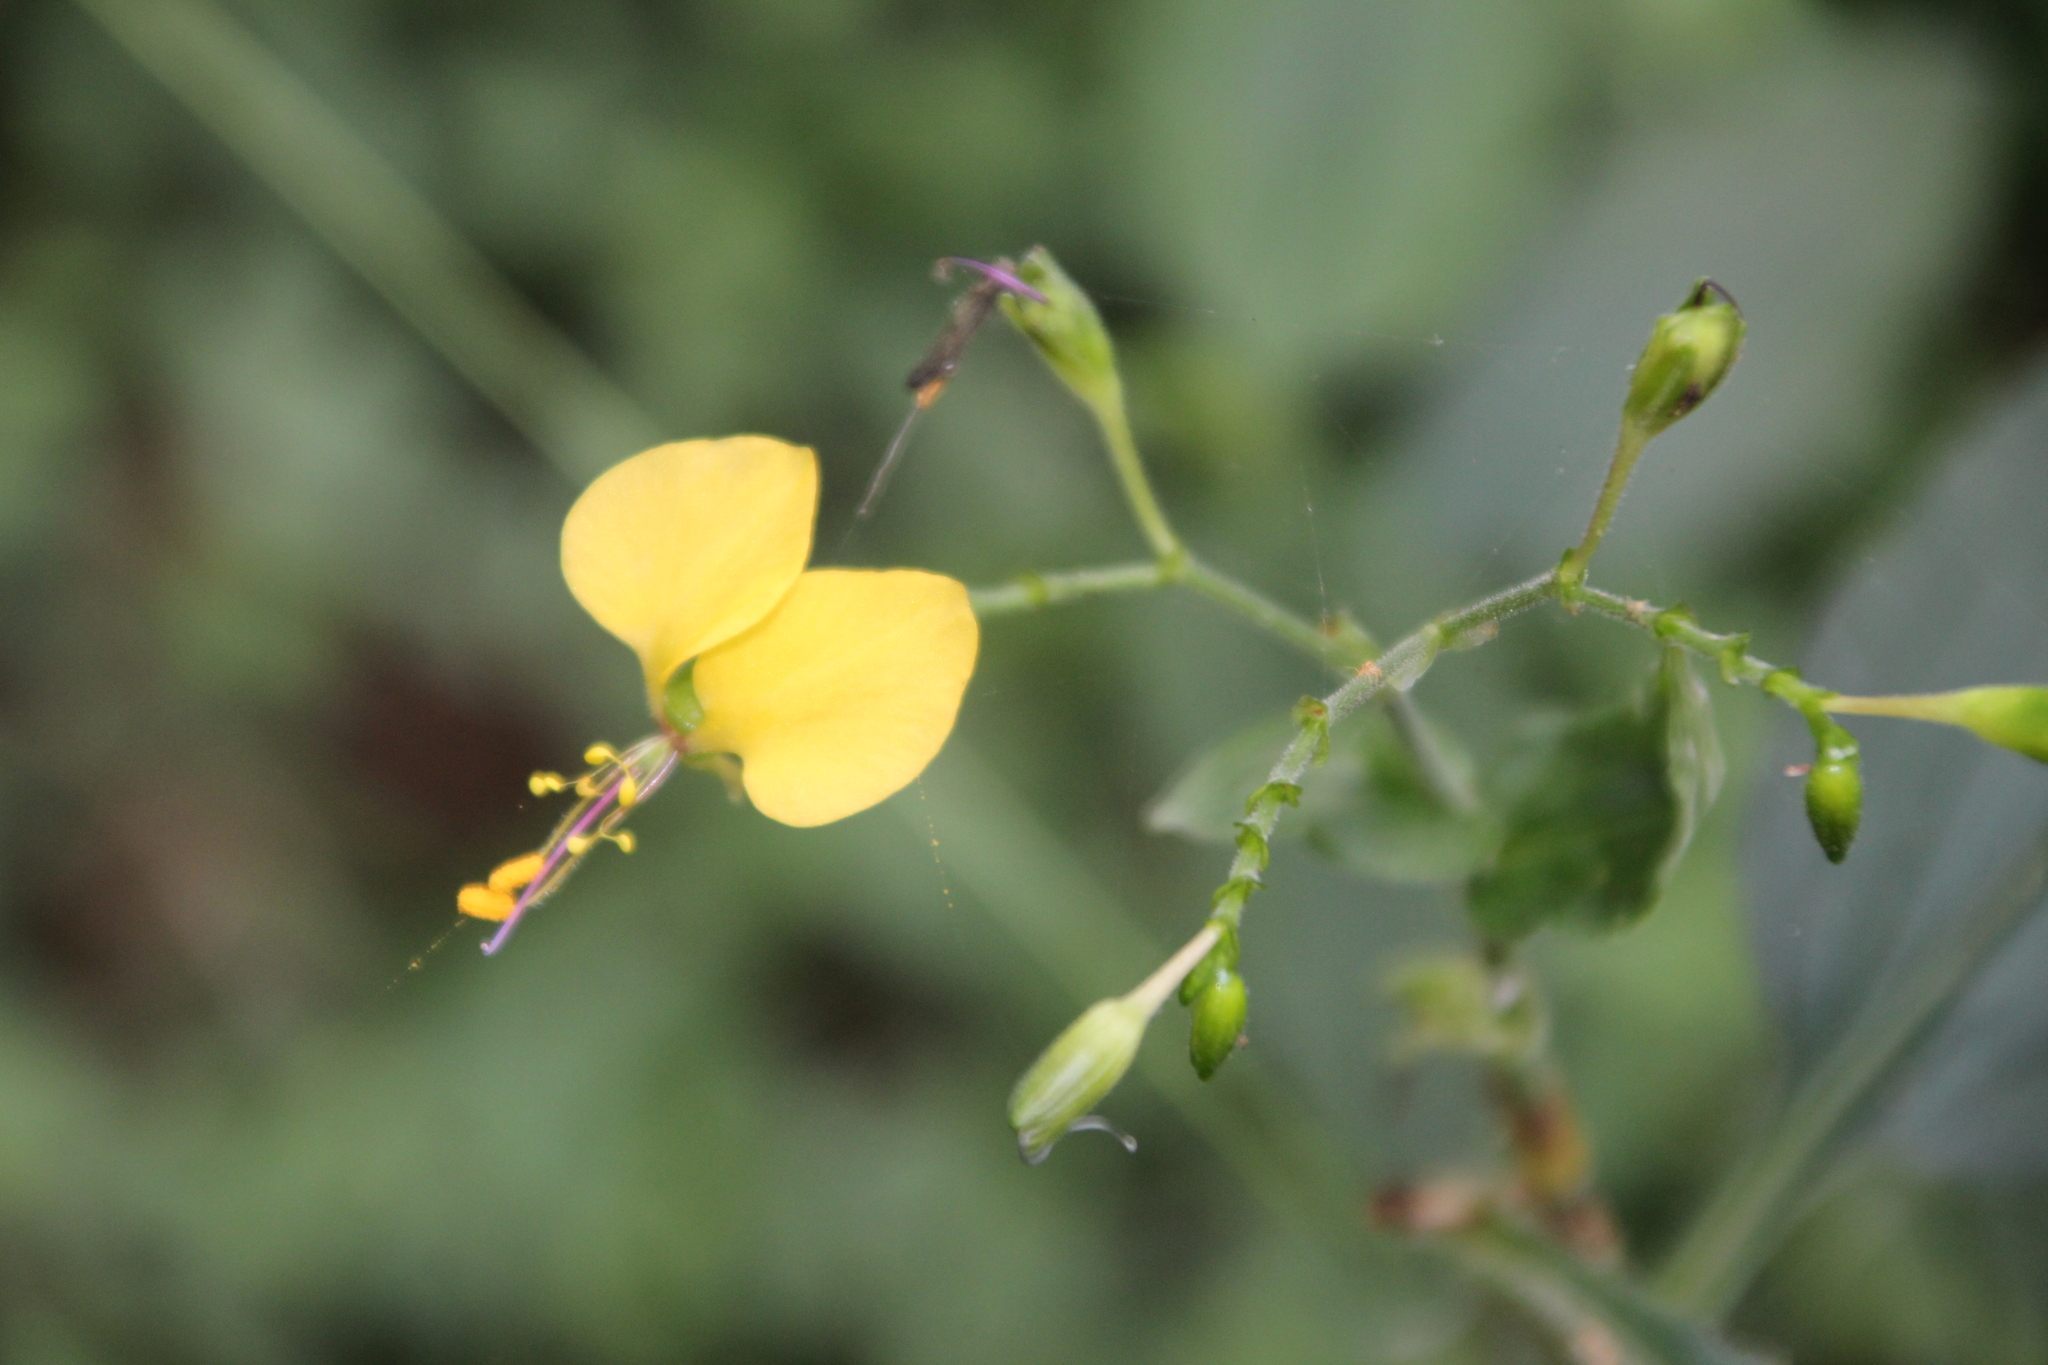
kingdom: Plantae
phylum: Tracheophyta
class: Liliopsida
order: Commelinales
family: Commelinaceae
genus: Aneilema
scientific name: Aneilema aequinoctiale
